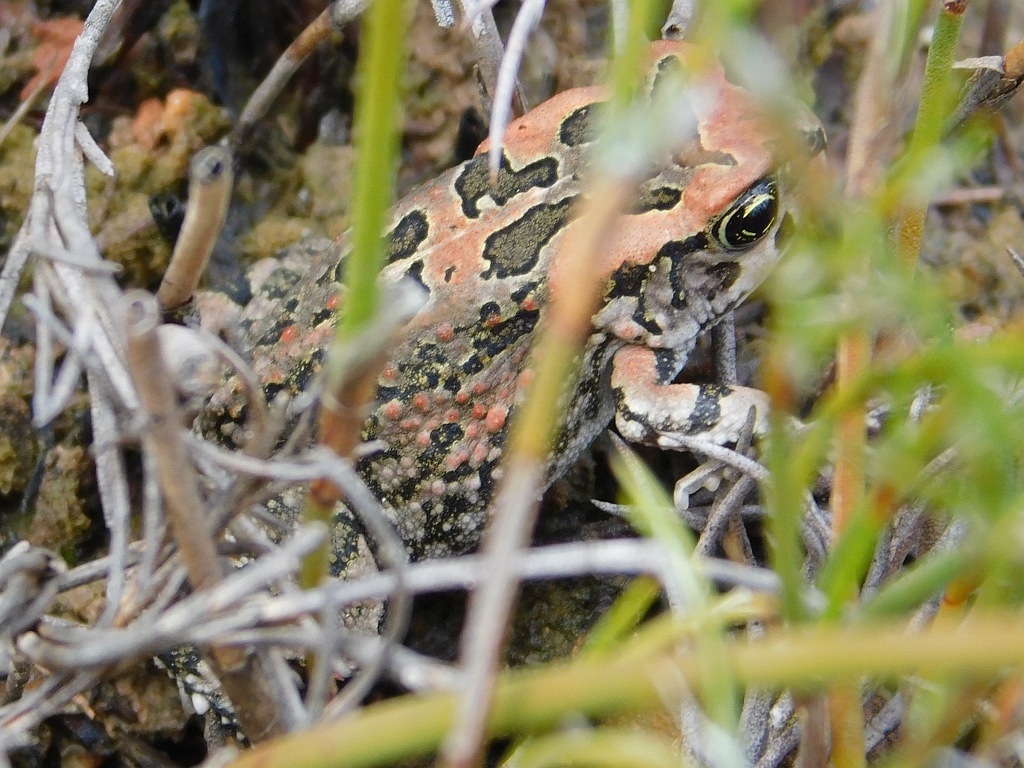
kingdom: Animalia
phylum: Chordata
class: Amphibia
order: Anura
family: Bufonidae
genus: Sclerophrys
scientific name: Sclerophrys capensis
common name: Ranger’s toad
